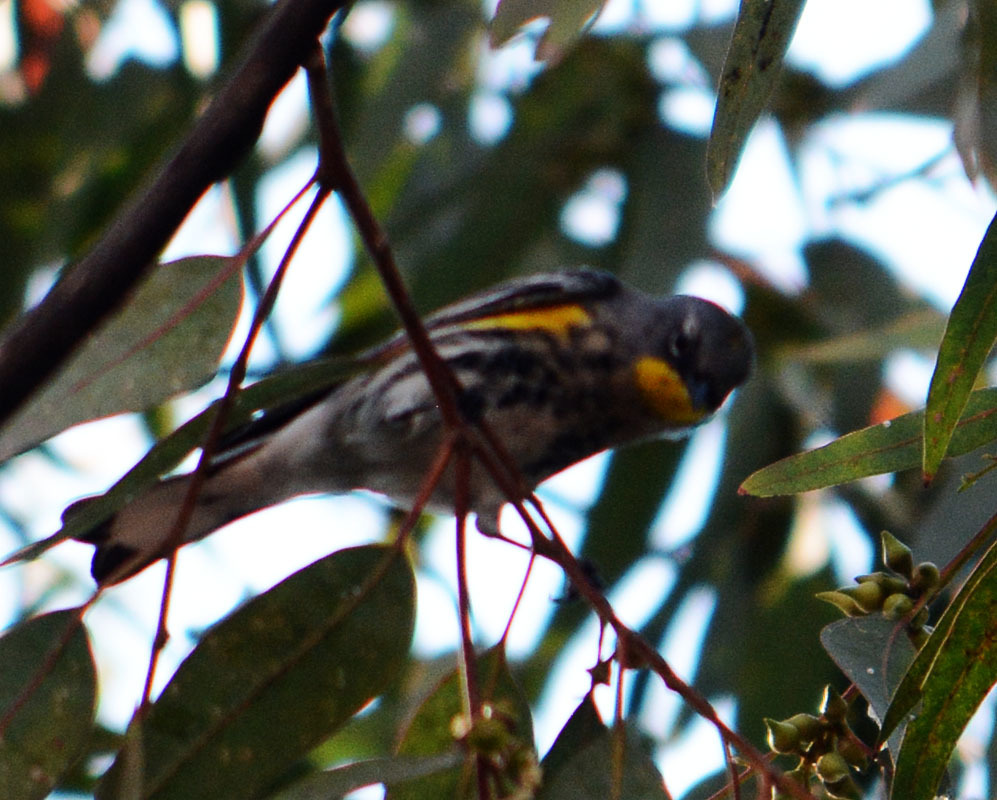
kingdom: Animalia
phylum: Chordata
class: Aves
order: Passeriformes
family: Parulidae
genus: Setophaga
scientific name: Setophaga auduboni
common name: Audubon's warbler
